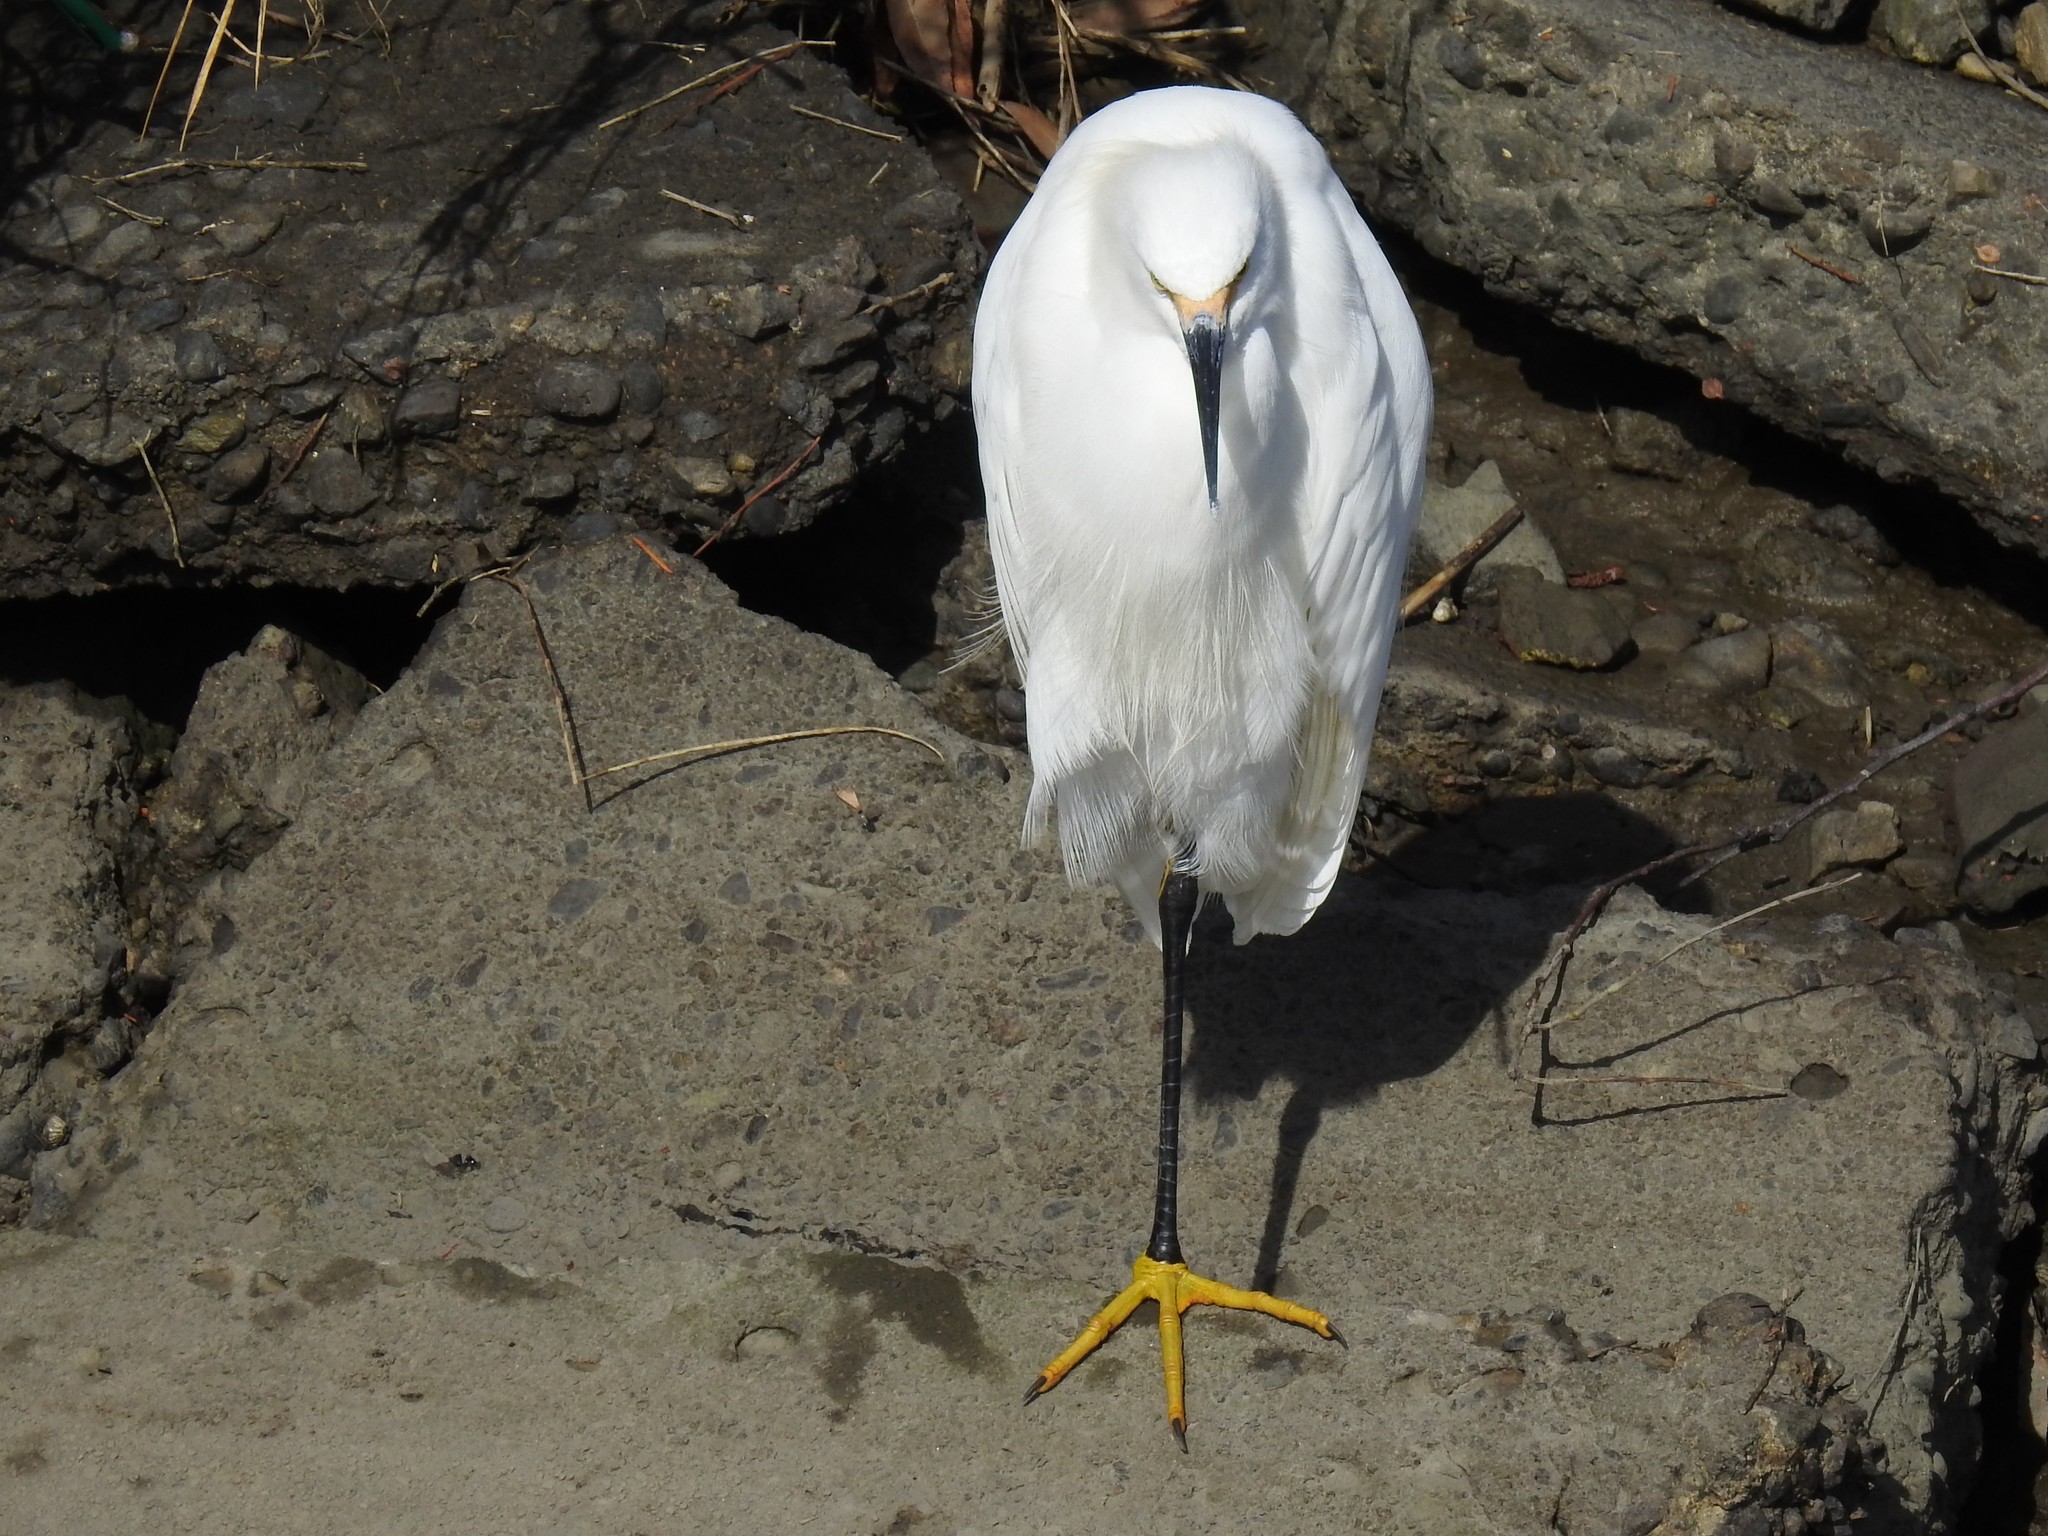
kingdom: Animalia
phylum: Chordata
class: Aves
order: Pelecaniformes
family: Ardeidae
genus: Egretta
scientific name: Egretta thula
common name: Snowy egret
